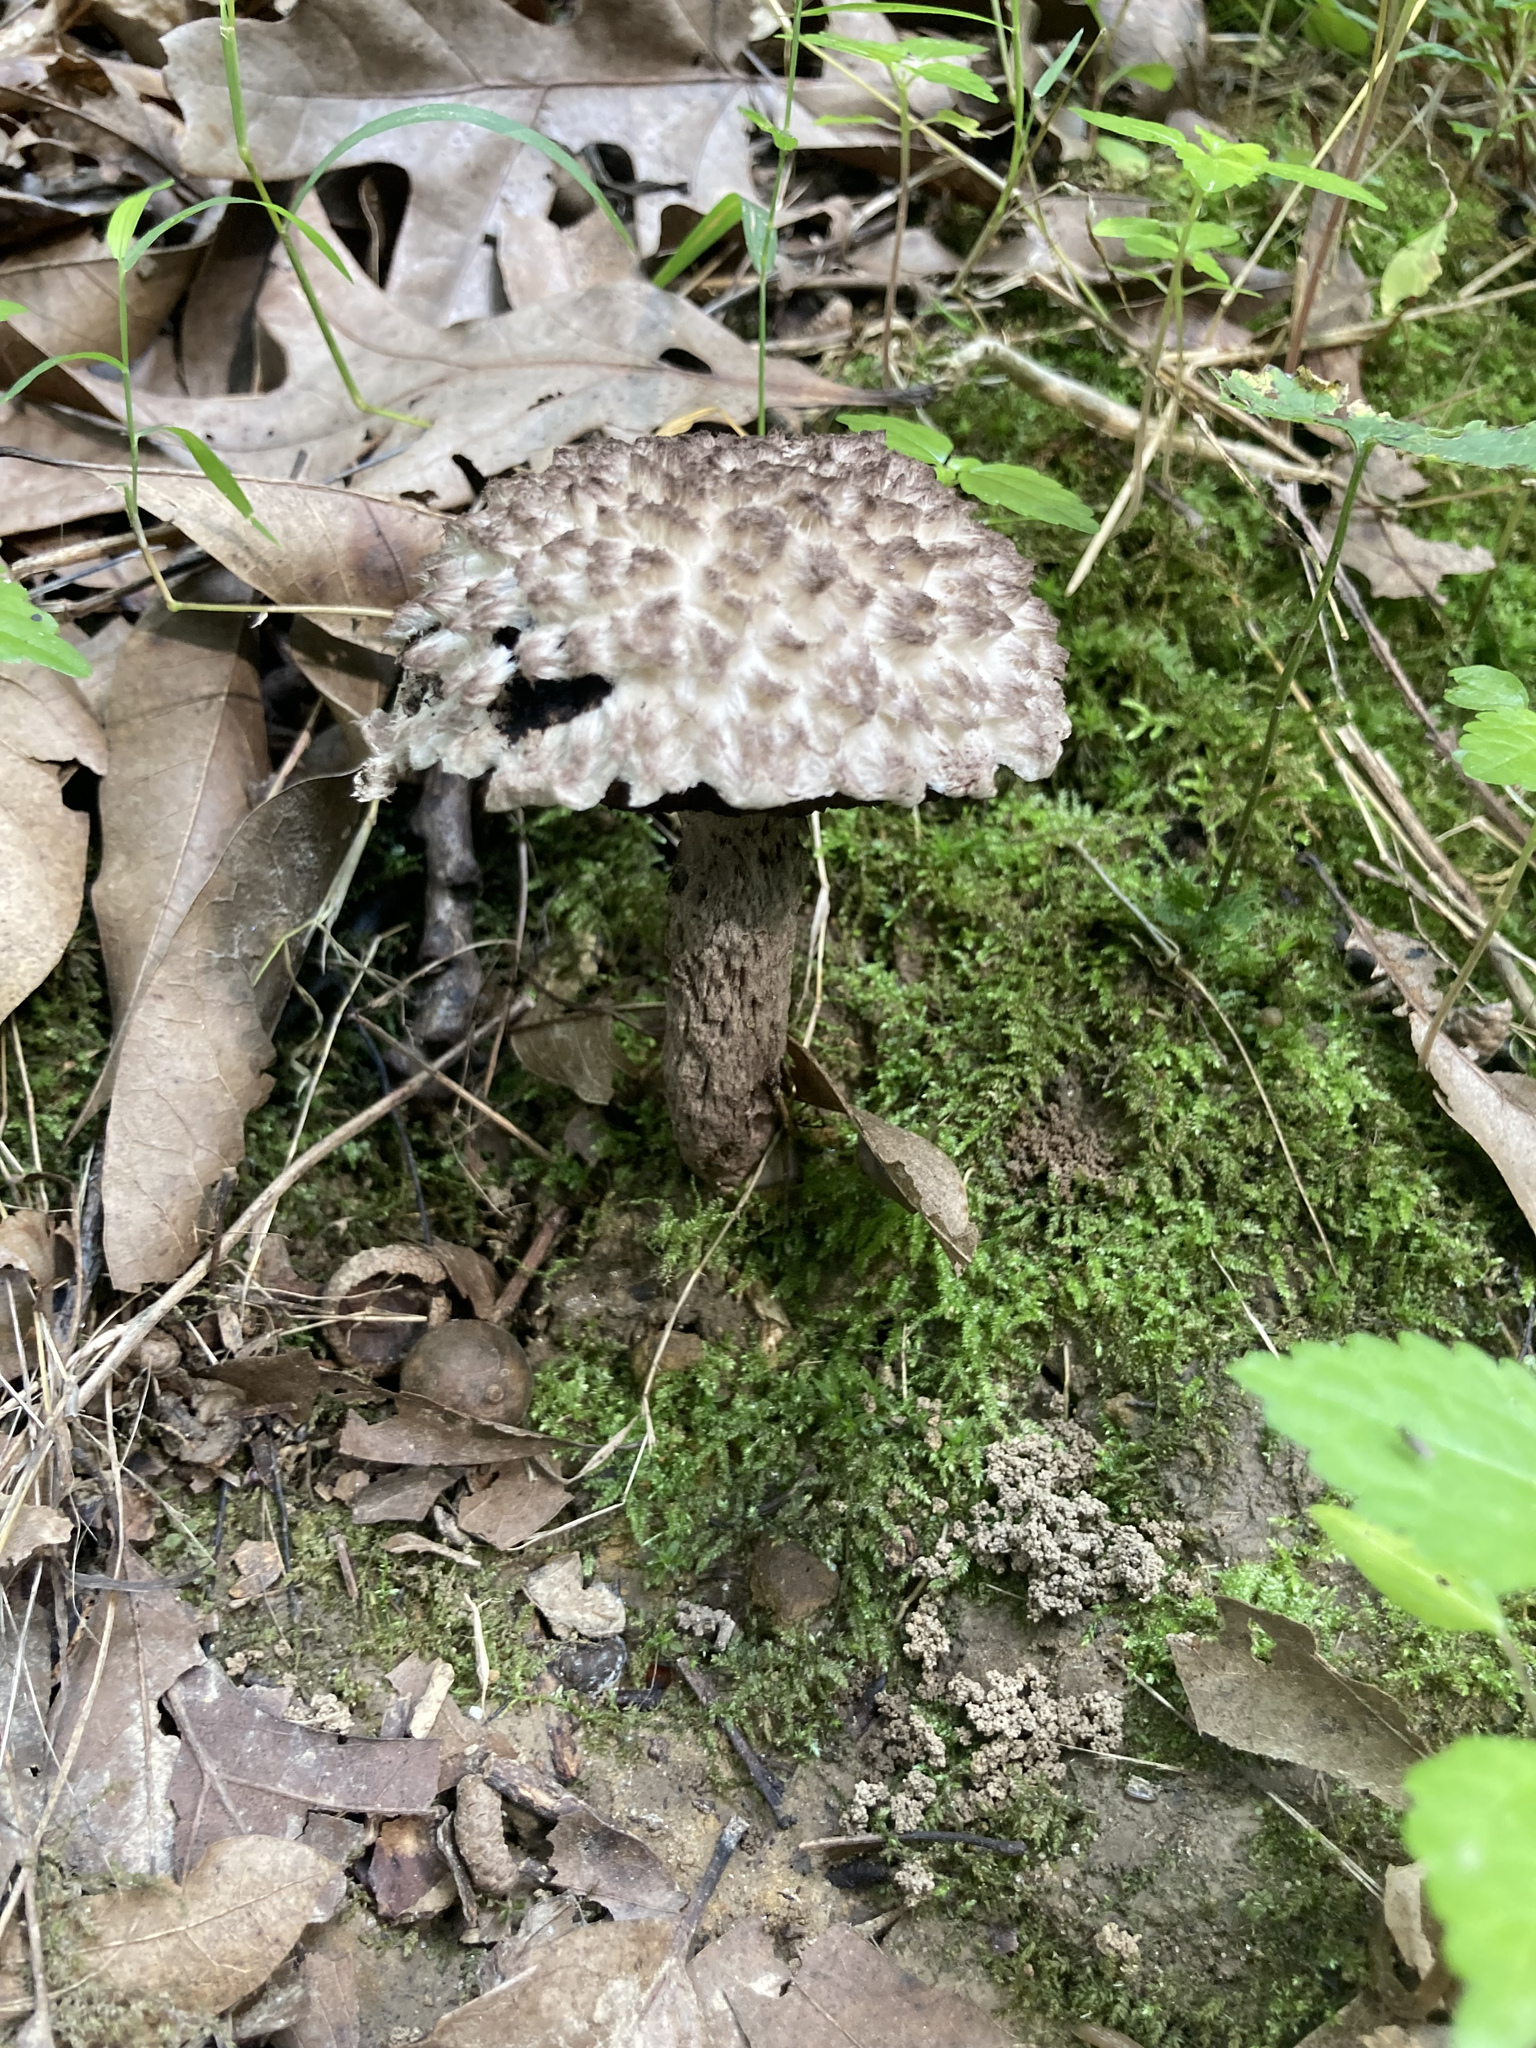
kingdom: Fungi
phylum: Basidiomycota
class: Agaricomycetes
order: Boletales
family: Boletaceae
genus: Strobilomyces
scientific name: Strobilomyces strobilaceus
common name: Old man of the woods
